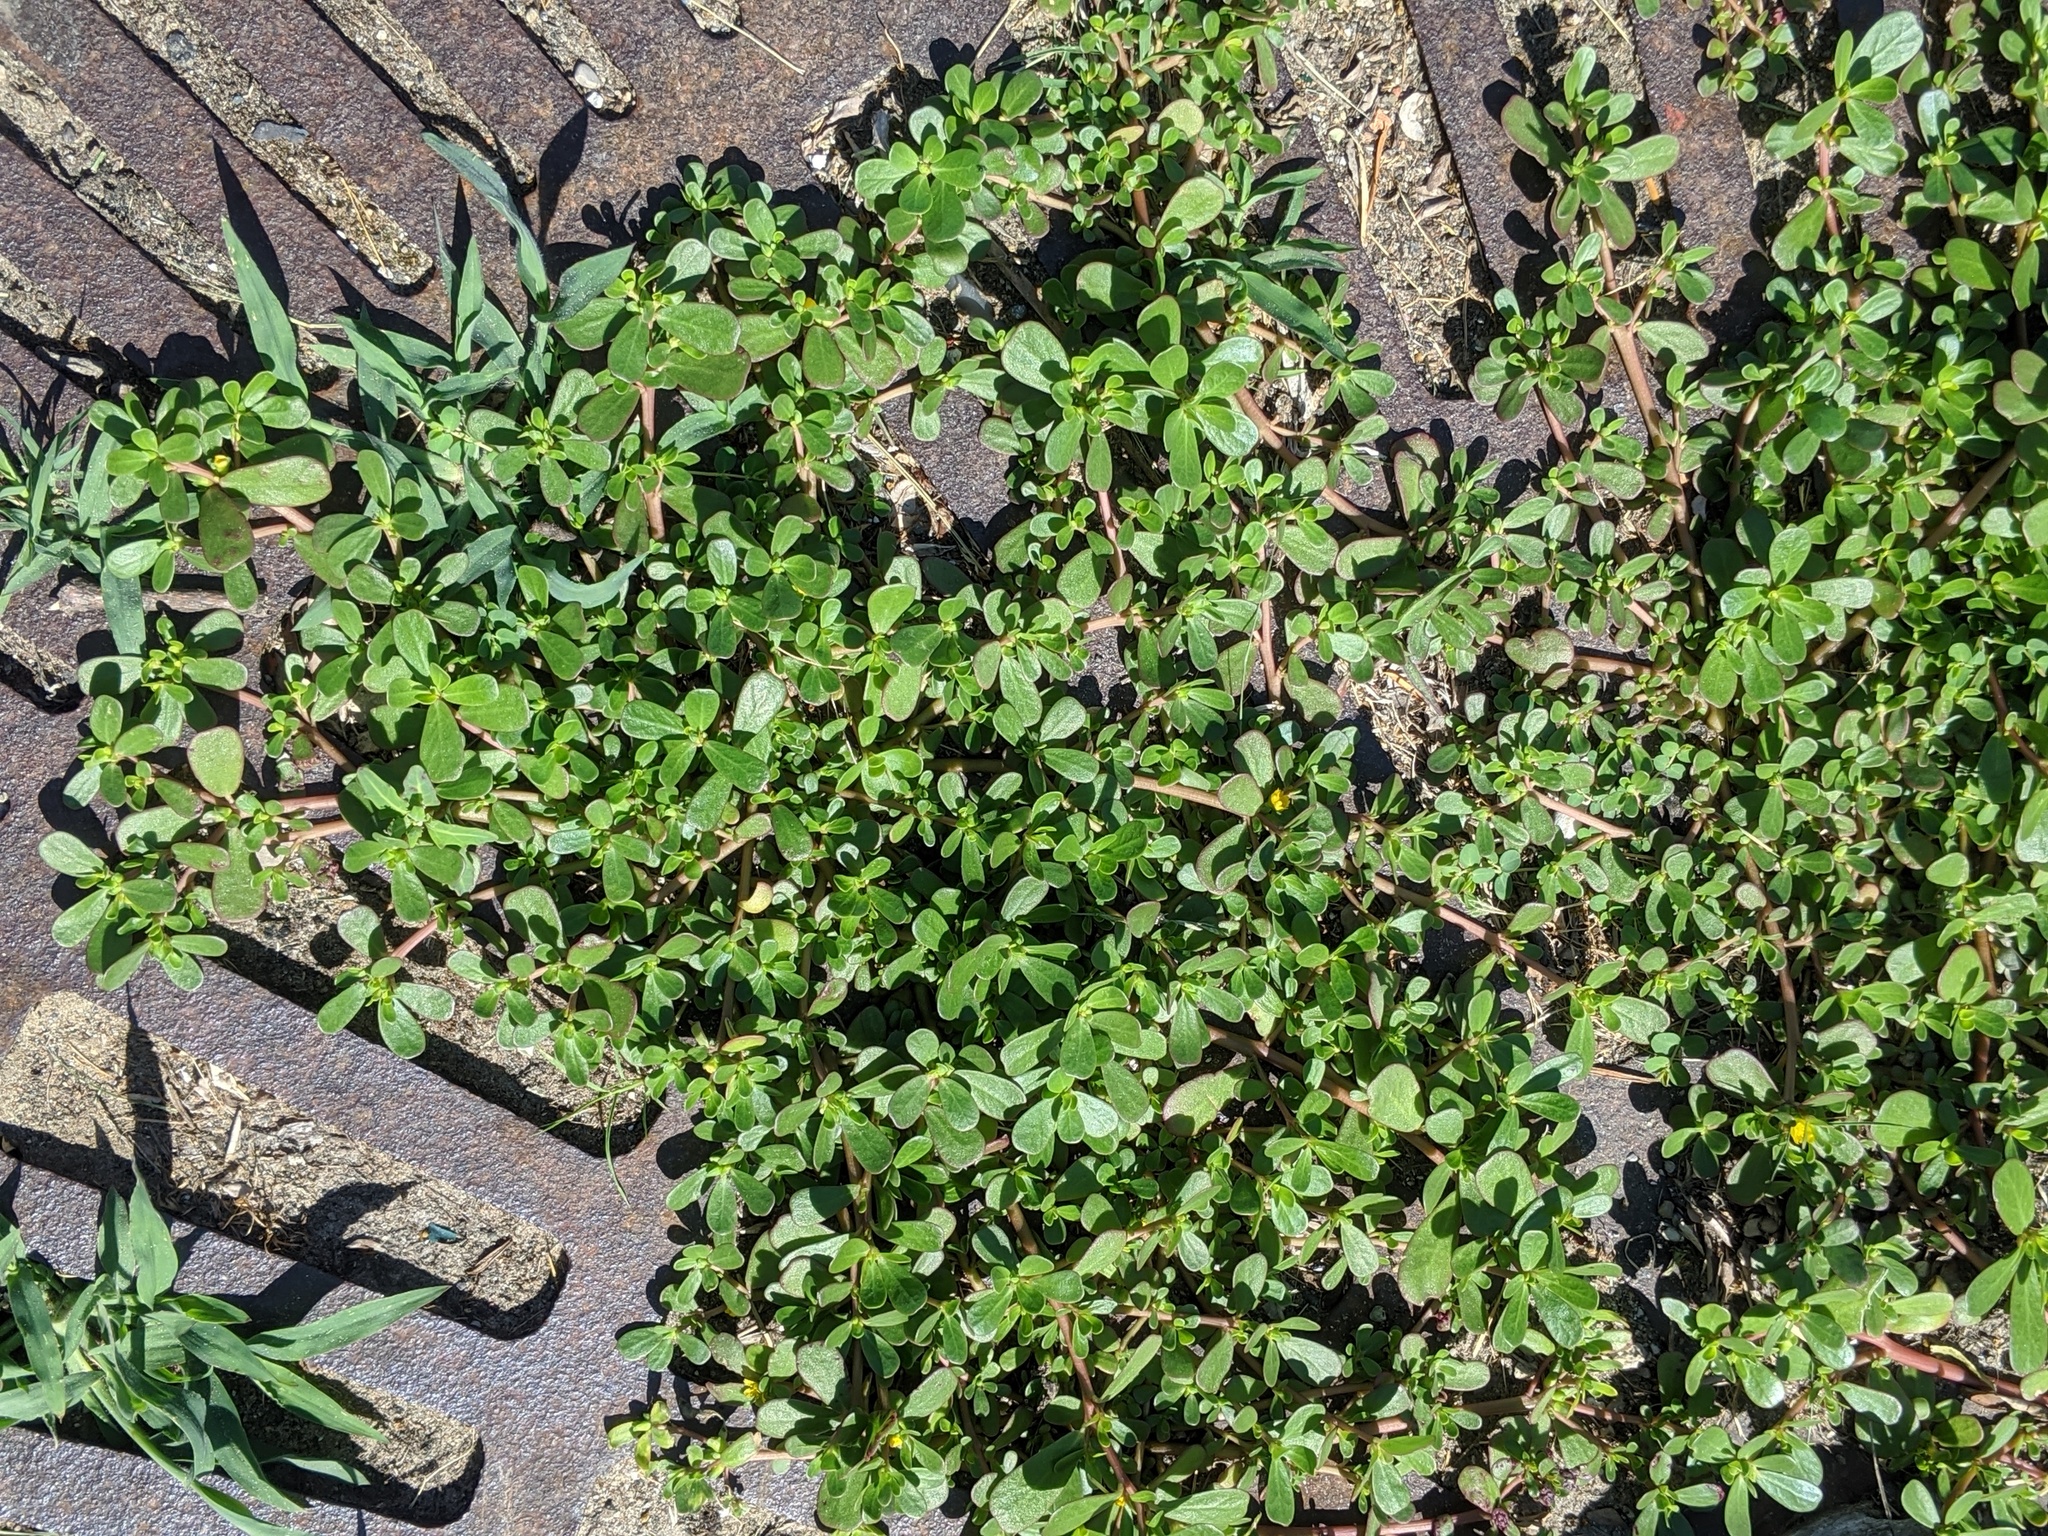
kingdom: Plantae
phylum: Tracheophyta
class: Magnoliopsida
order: Caryophyllales
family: Portulacaceae
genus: Portulaca
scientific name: Portulaca oleracea
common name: Common purslane
